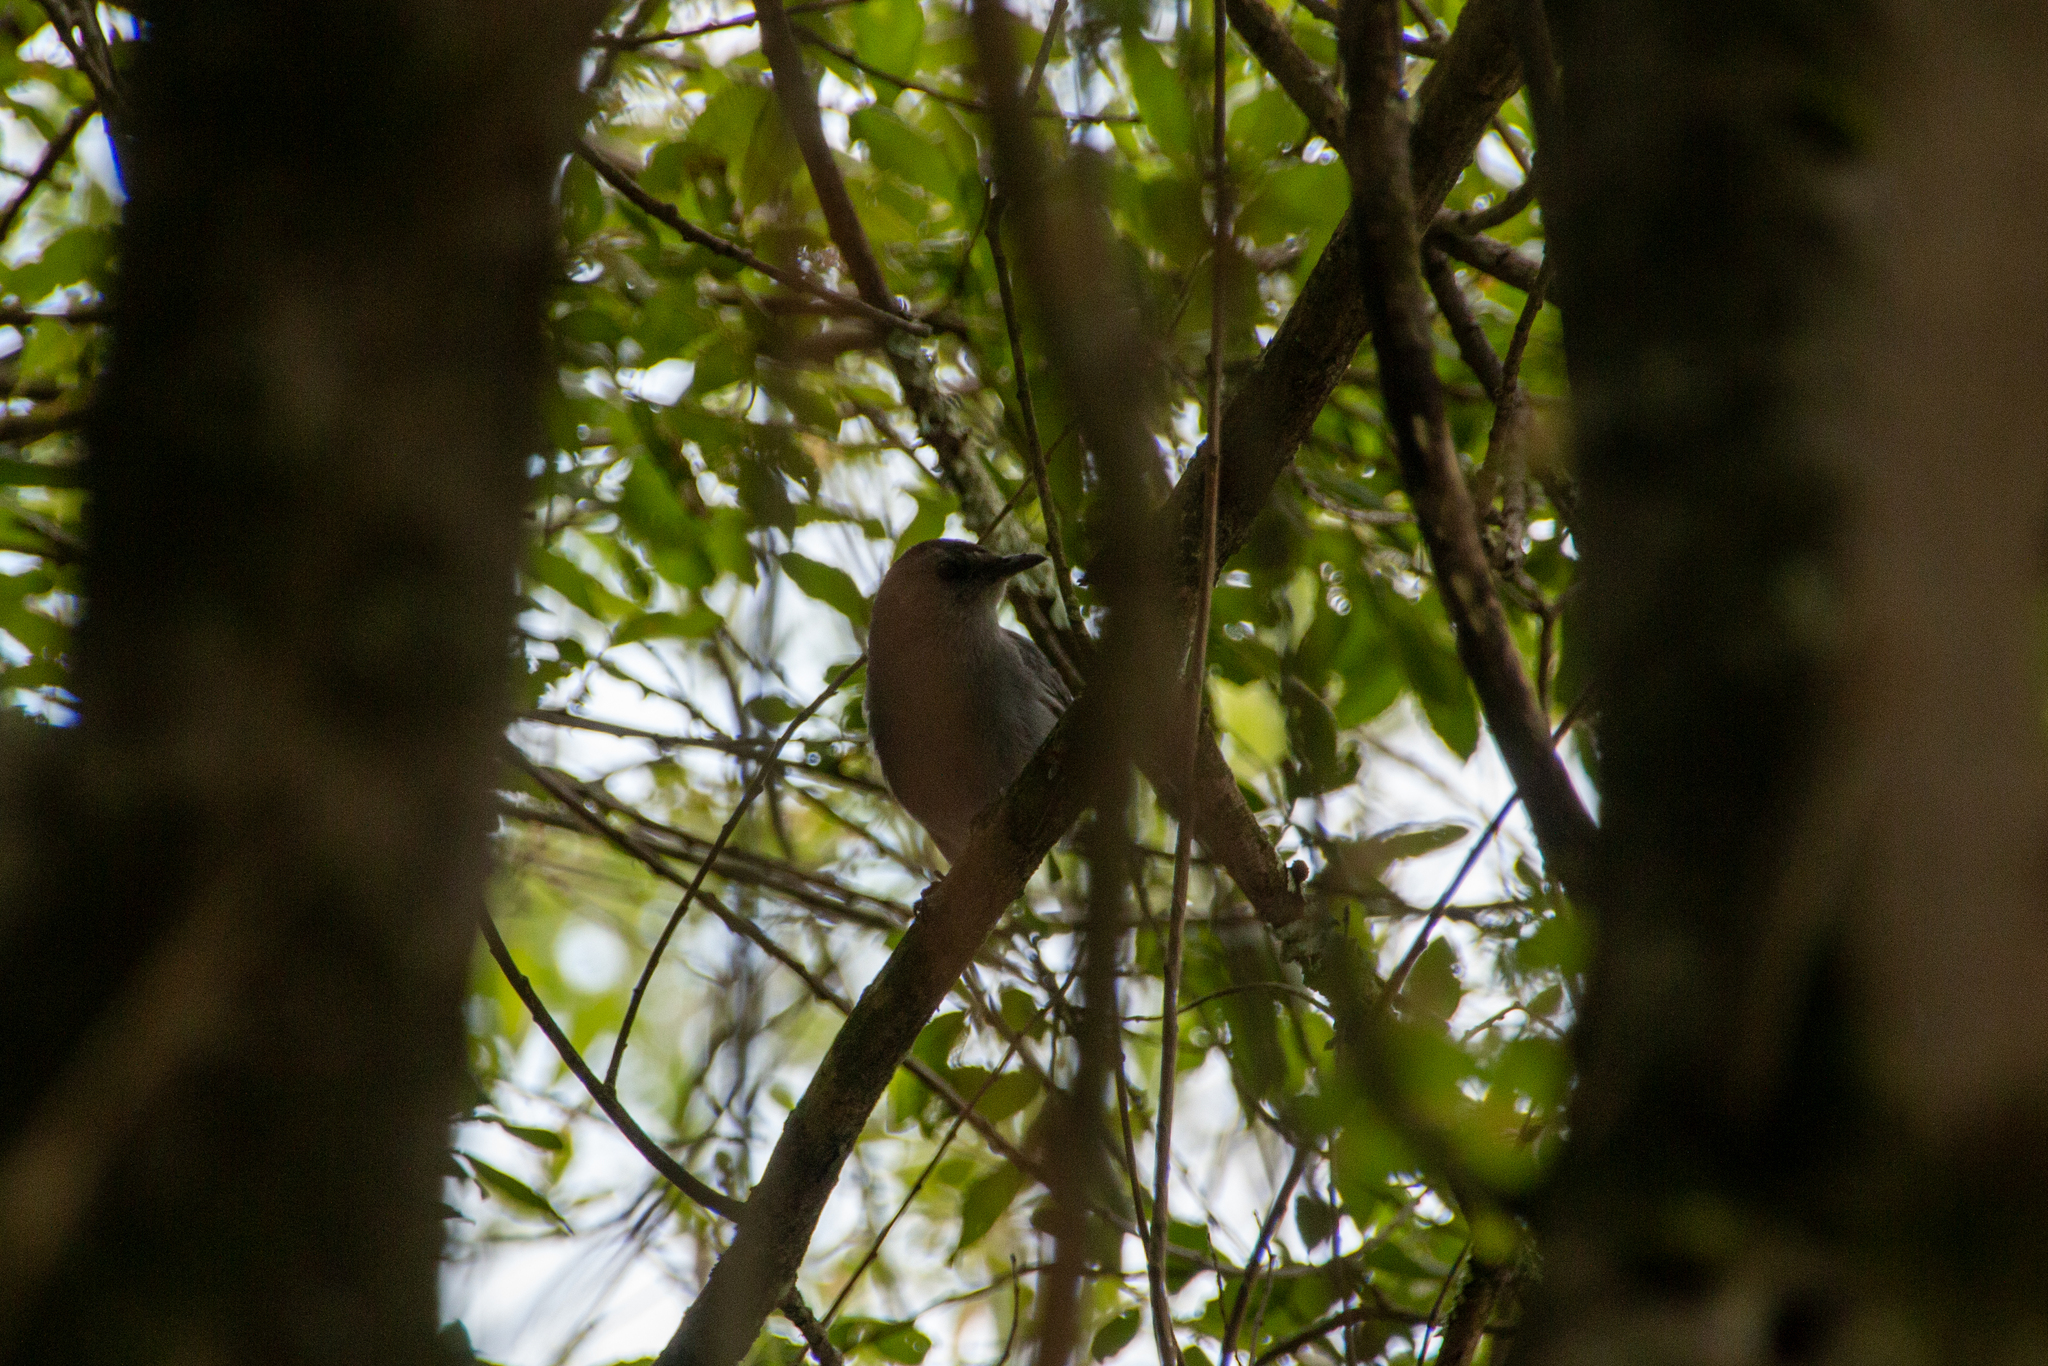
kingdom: Animalia
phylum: Chordata
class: Aves
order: Passeriformes
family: Mimidae
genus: Dumetella
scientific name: Dumetella carolinensis
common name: Gray catbird
